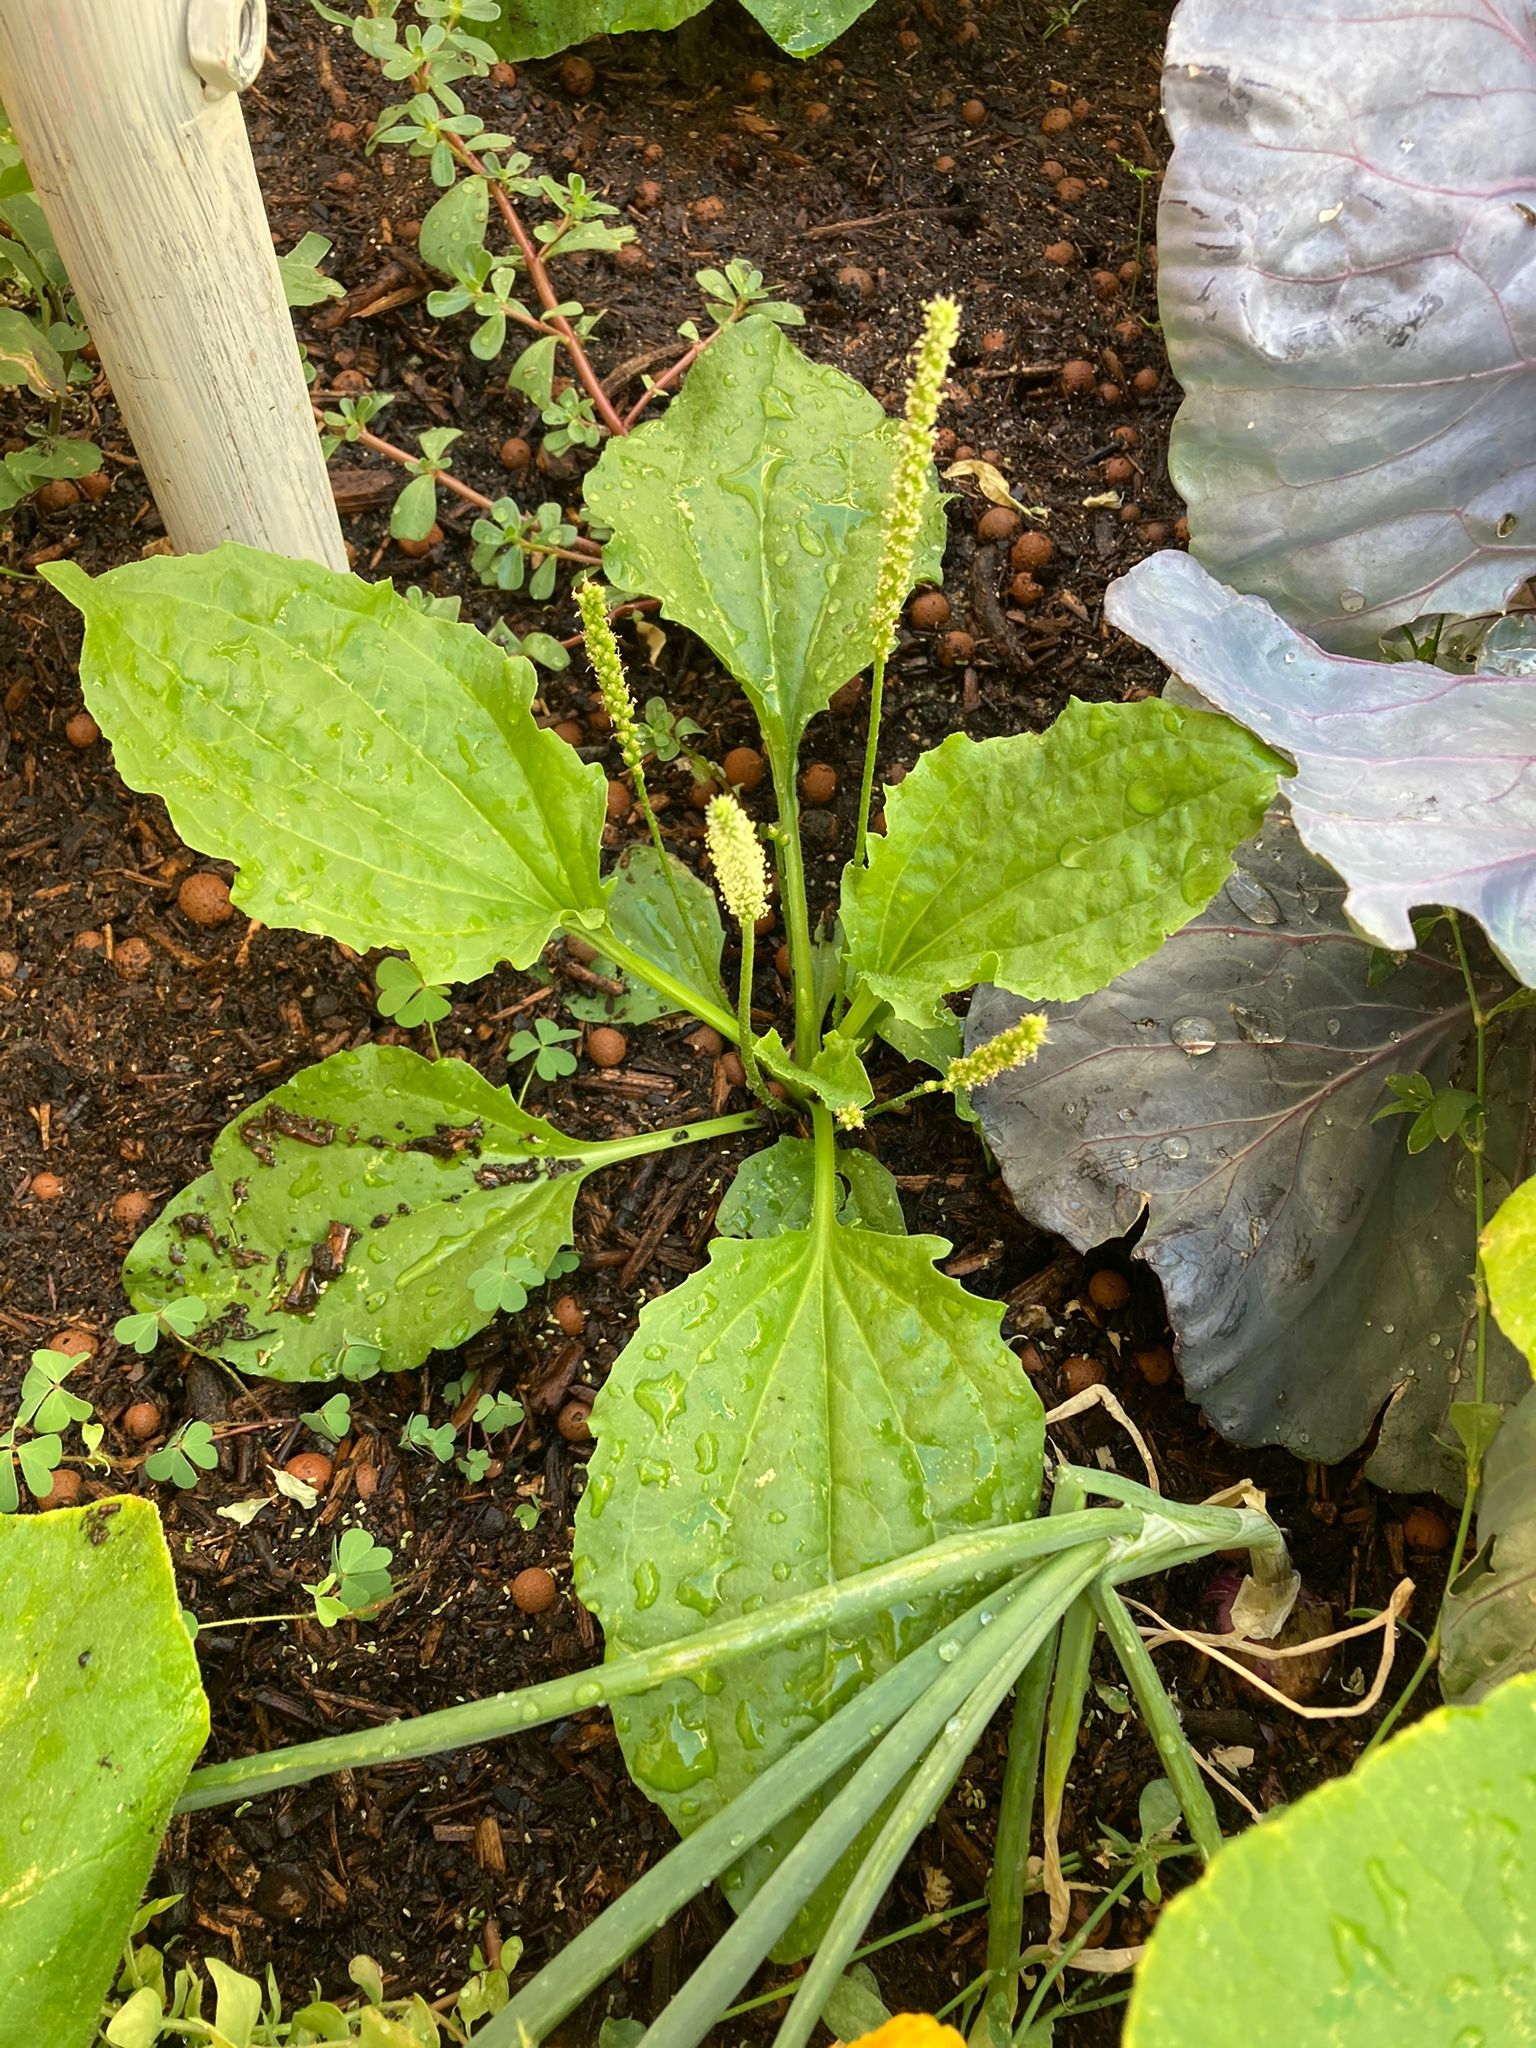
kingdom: Plantae
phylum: Tracheophyta
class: Magnoliopsida
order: Lamiales
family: Plantaginaceae
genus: Plantago
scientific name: Plantago major
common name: Common plantain
